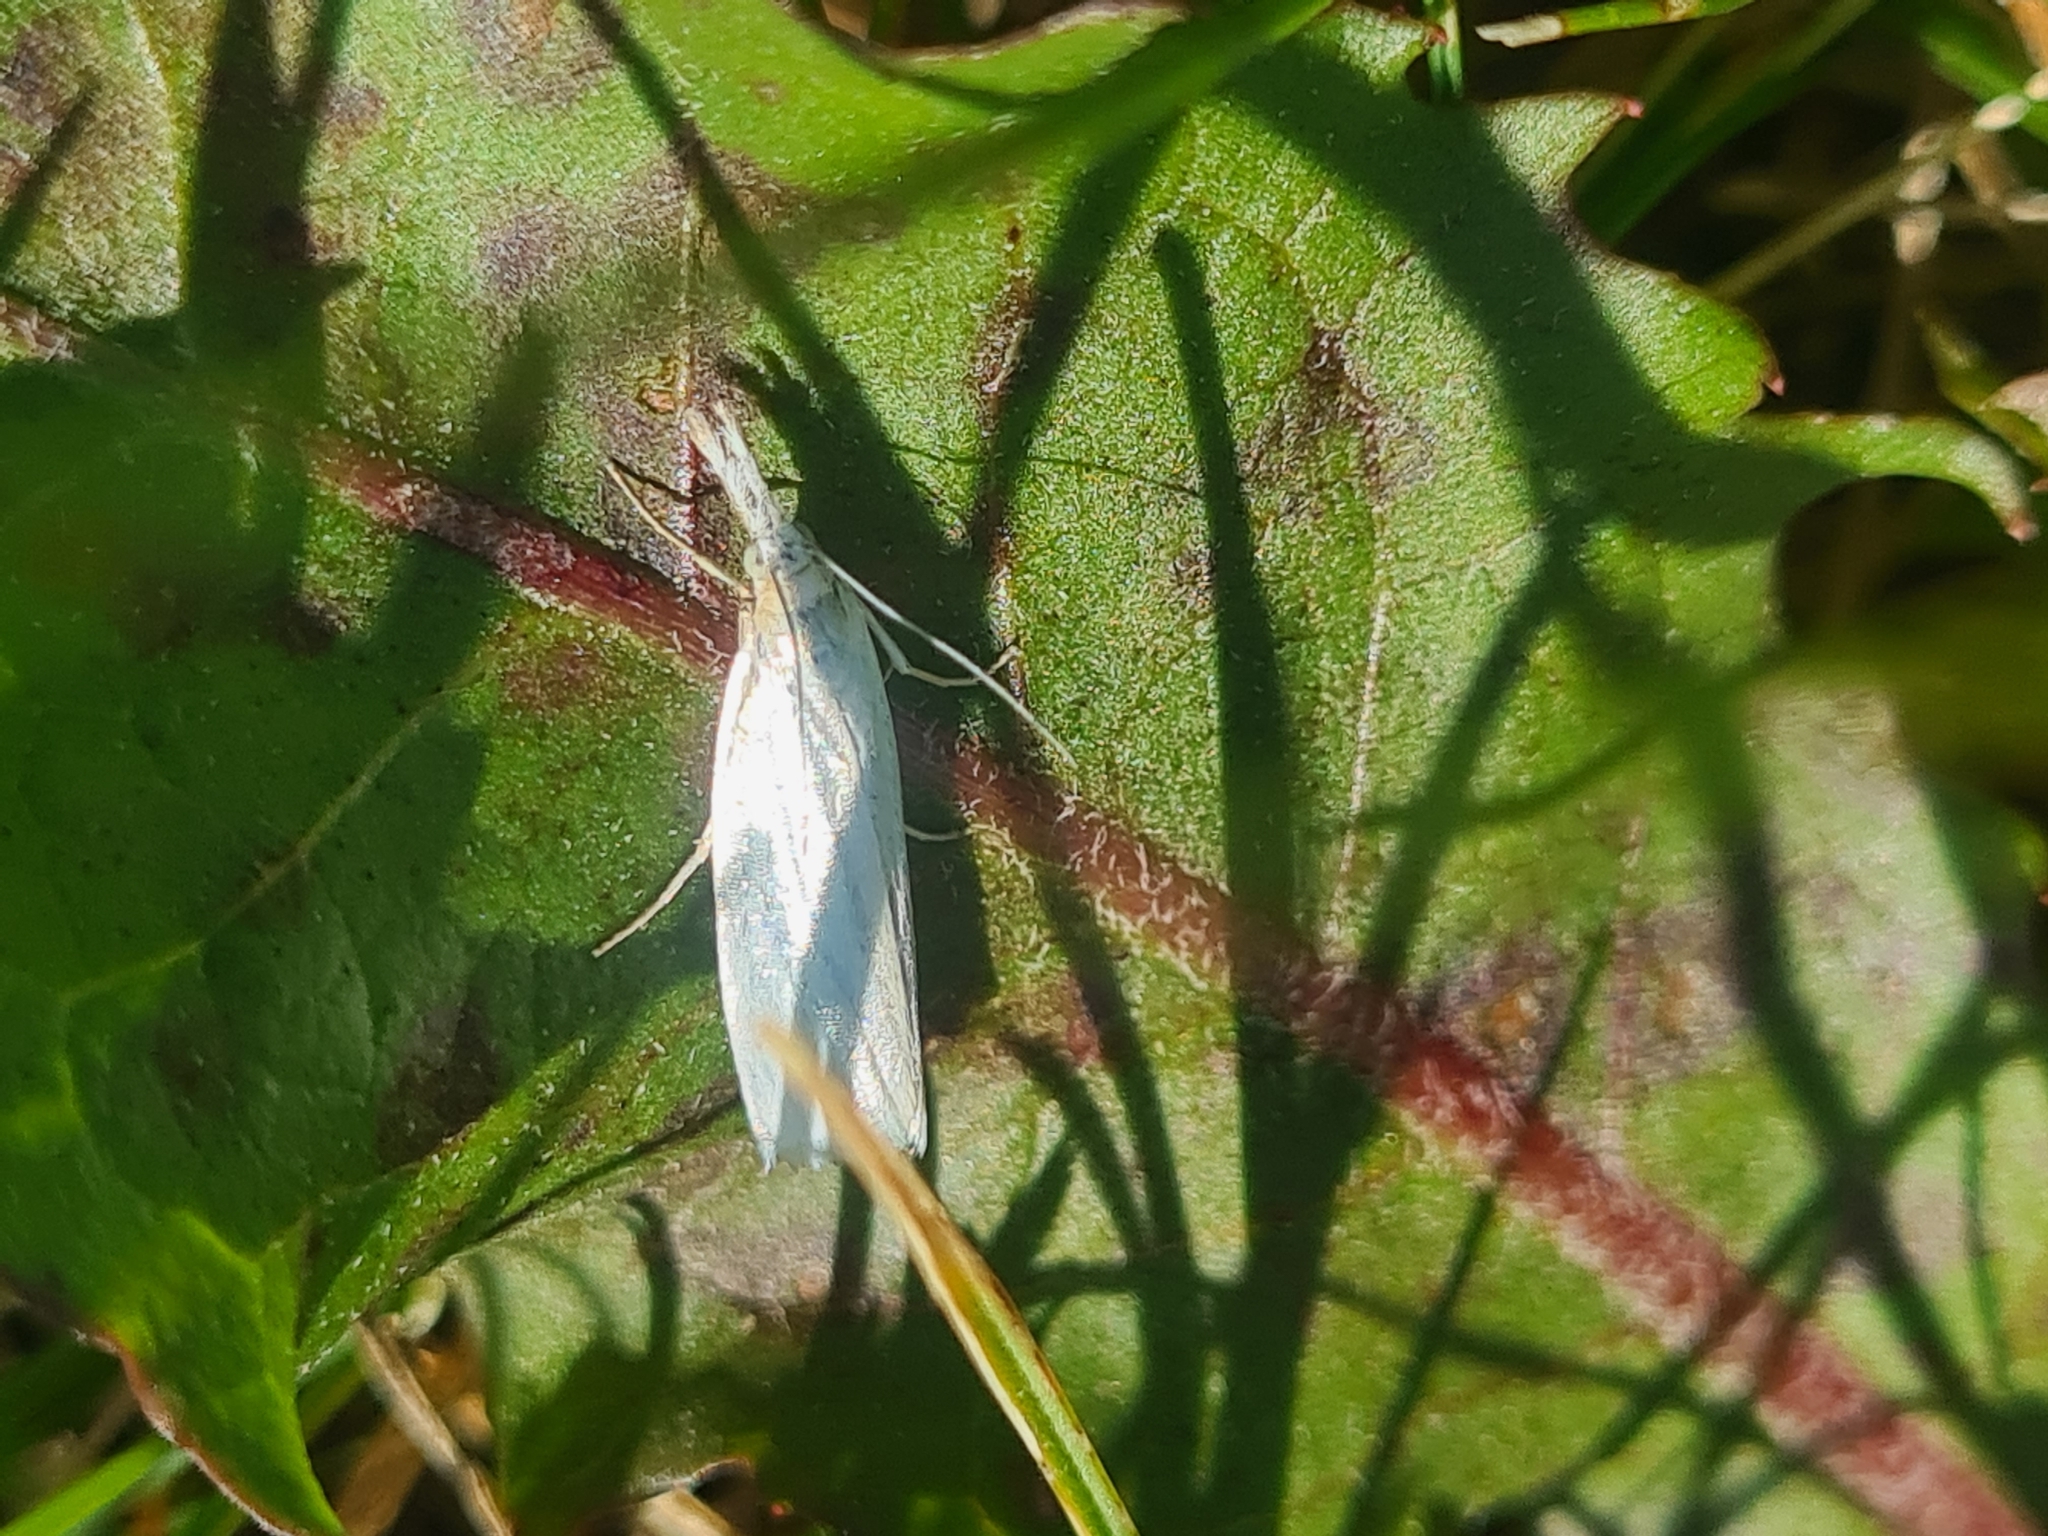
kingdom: Animalia
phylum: Arthropoda
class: Insecta
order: Lepidoptera
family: Crambidae
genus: Crambus
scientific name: Crambus perlellus
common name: Yellow satin veneer
